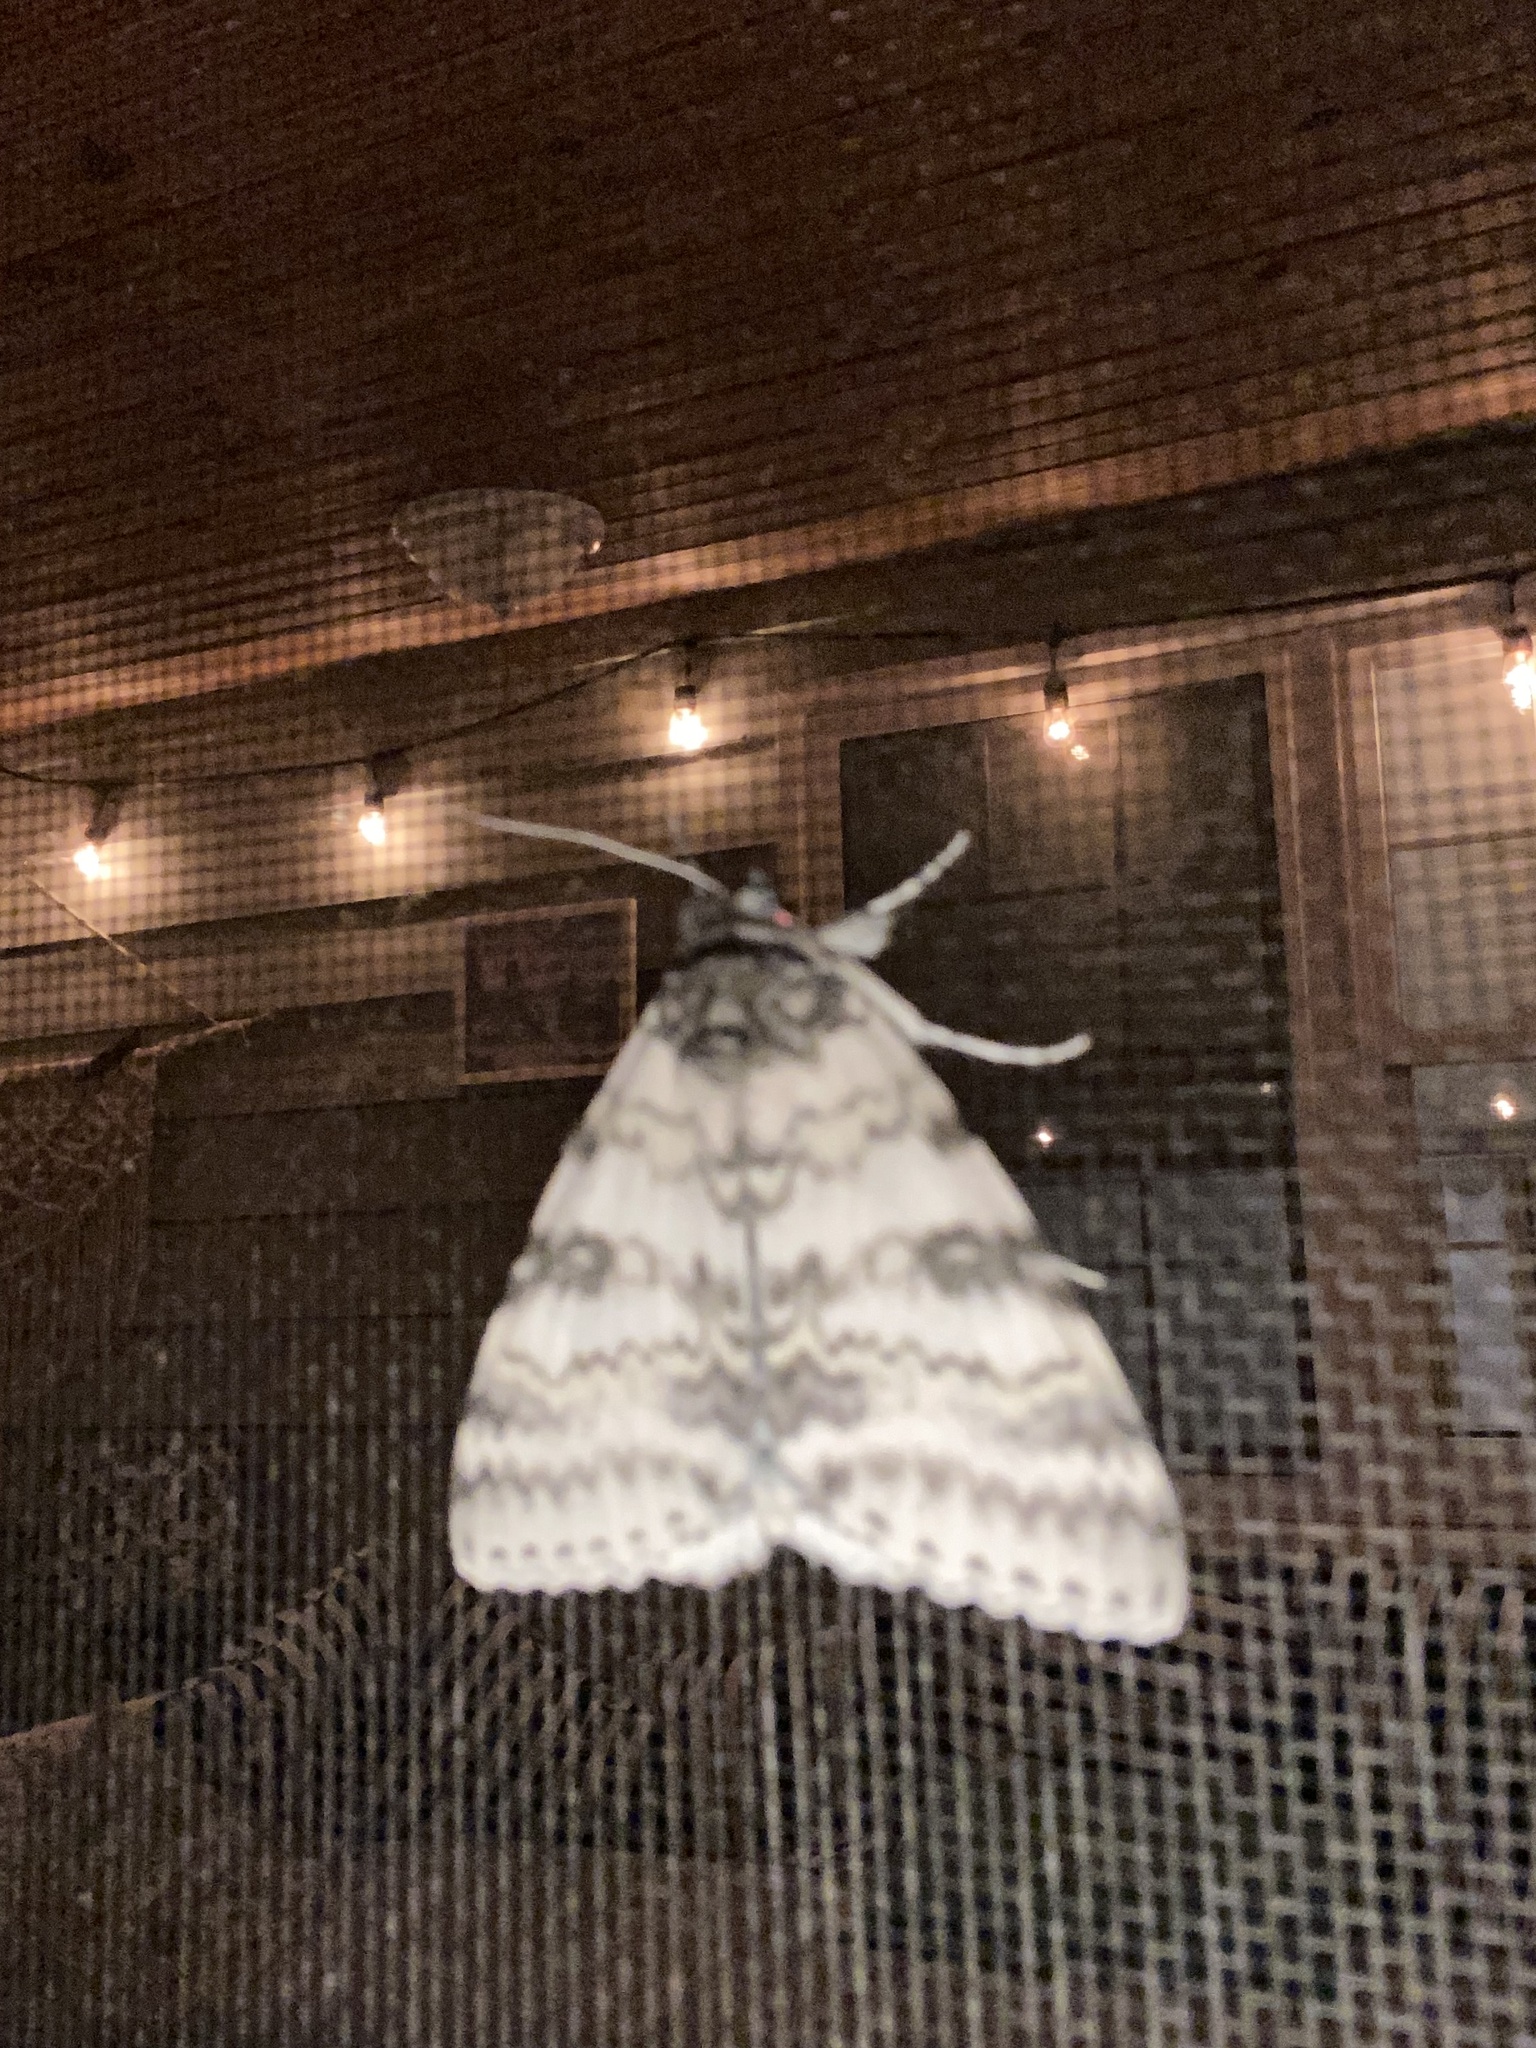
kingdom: Animalia
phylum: Arthropoda
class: Insecta
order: Lepidoptera
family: Erebidae
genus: Catocala
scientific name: Catocala relicta
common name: White underwing
